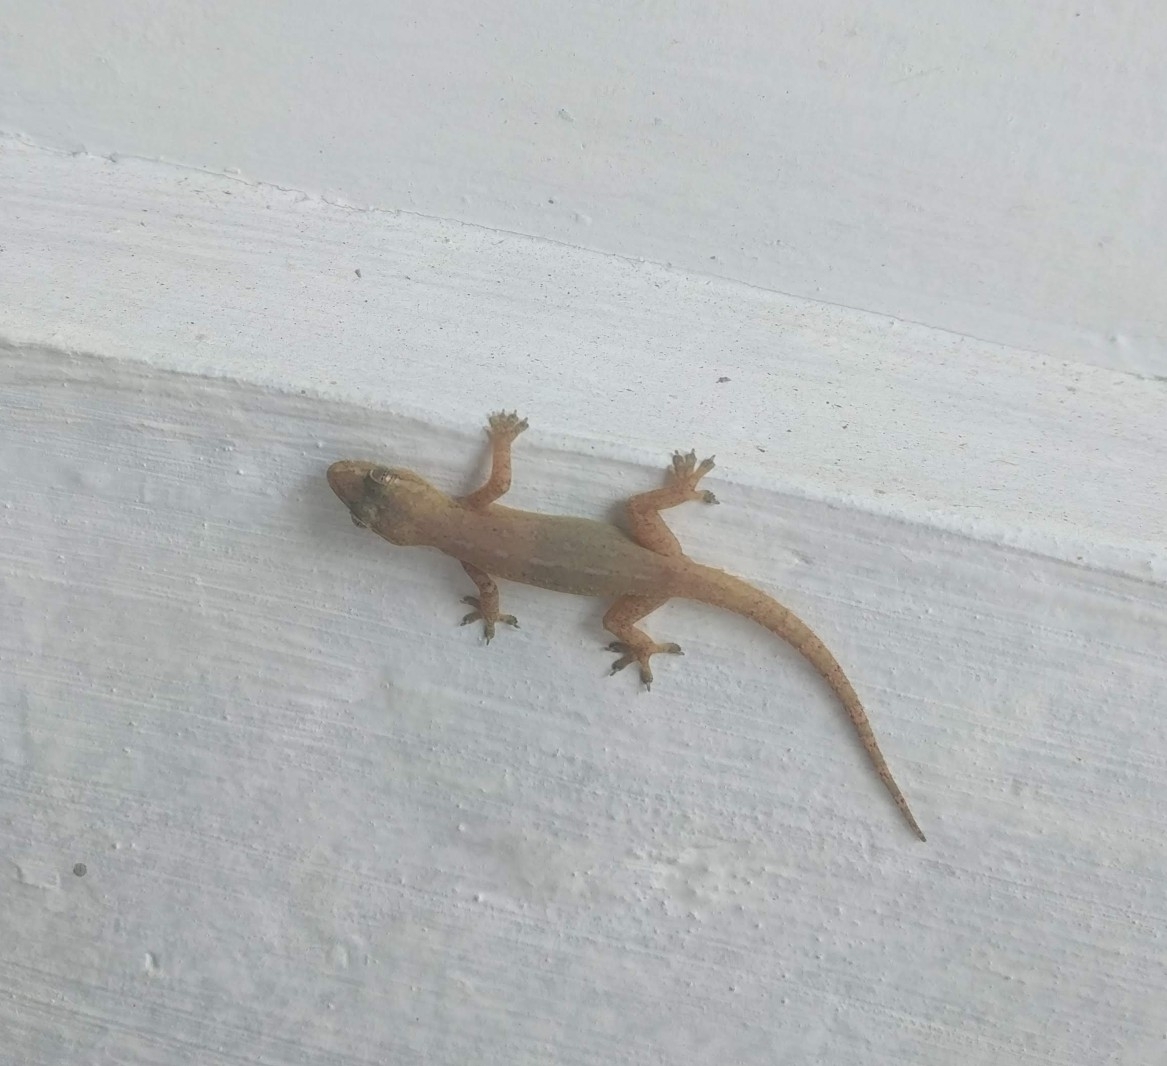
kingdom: Animalia
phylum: Chordata
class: Squamata
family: Gekkonidae
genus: Hemidactylus
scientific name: Hemidactylus frenatus
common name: Common house gecko
